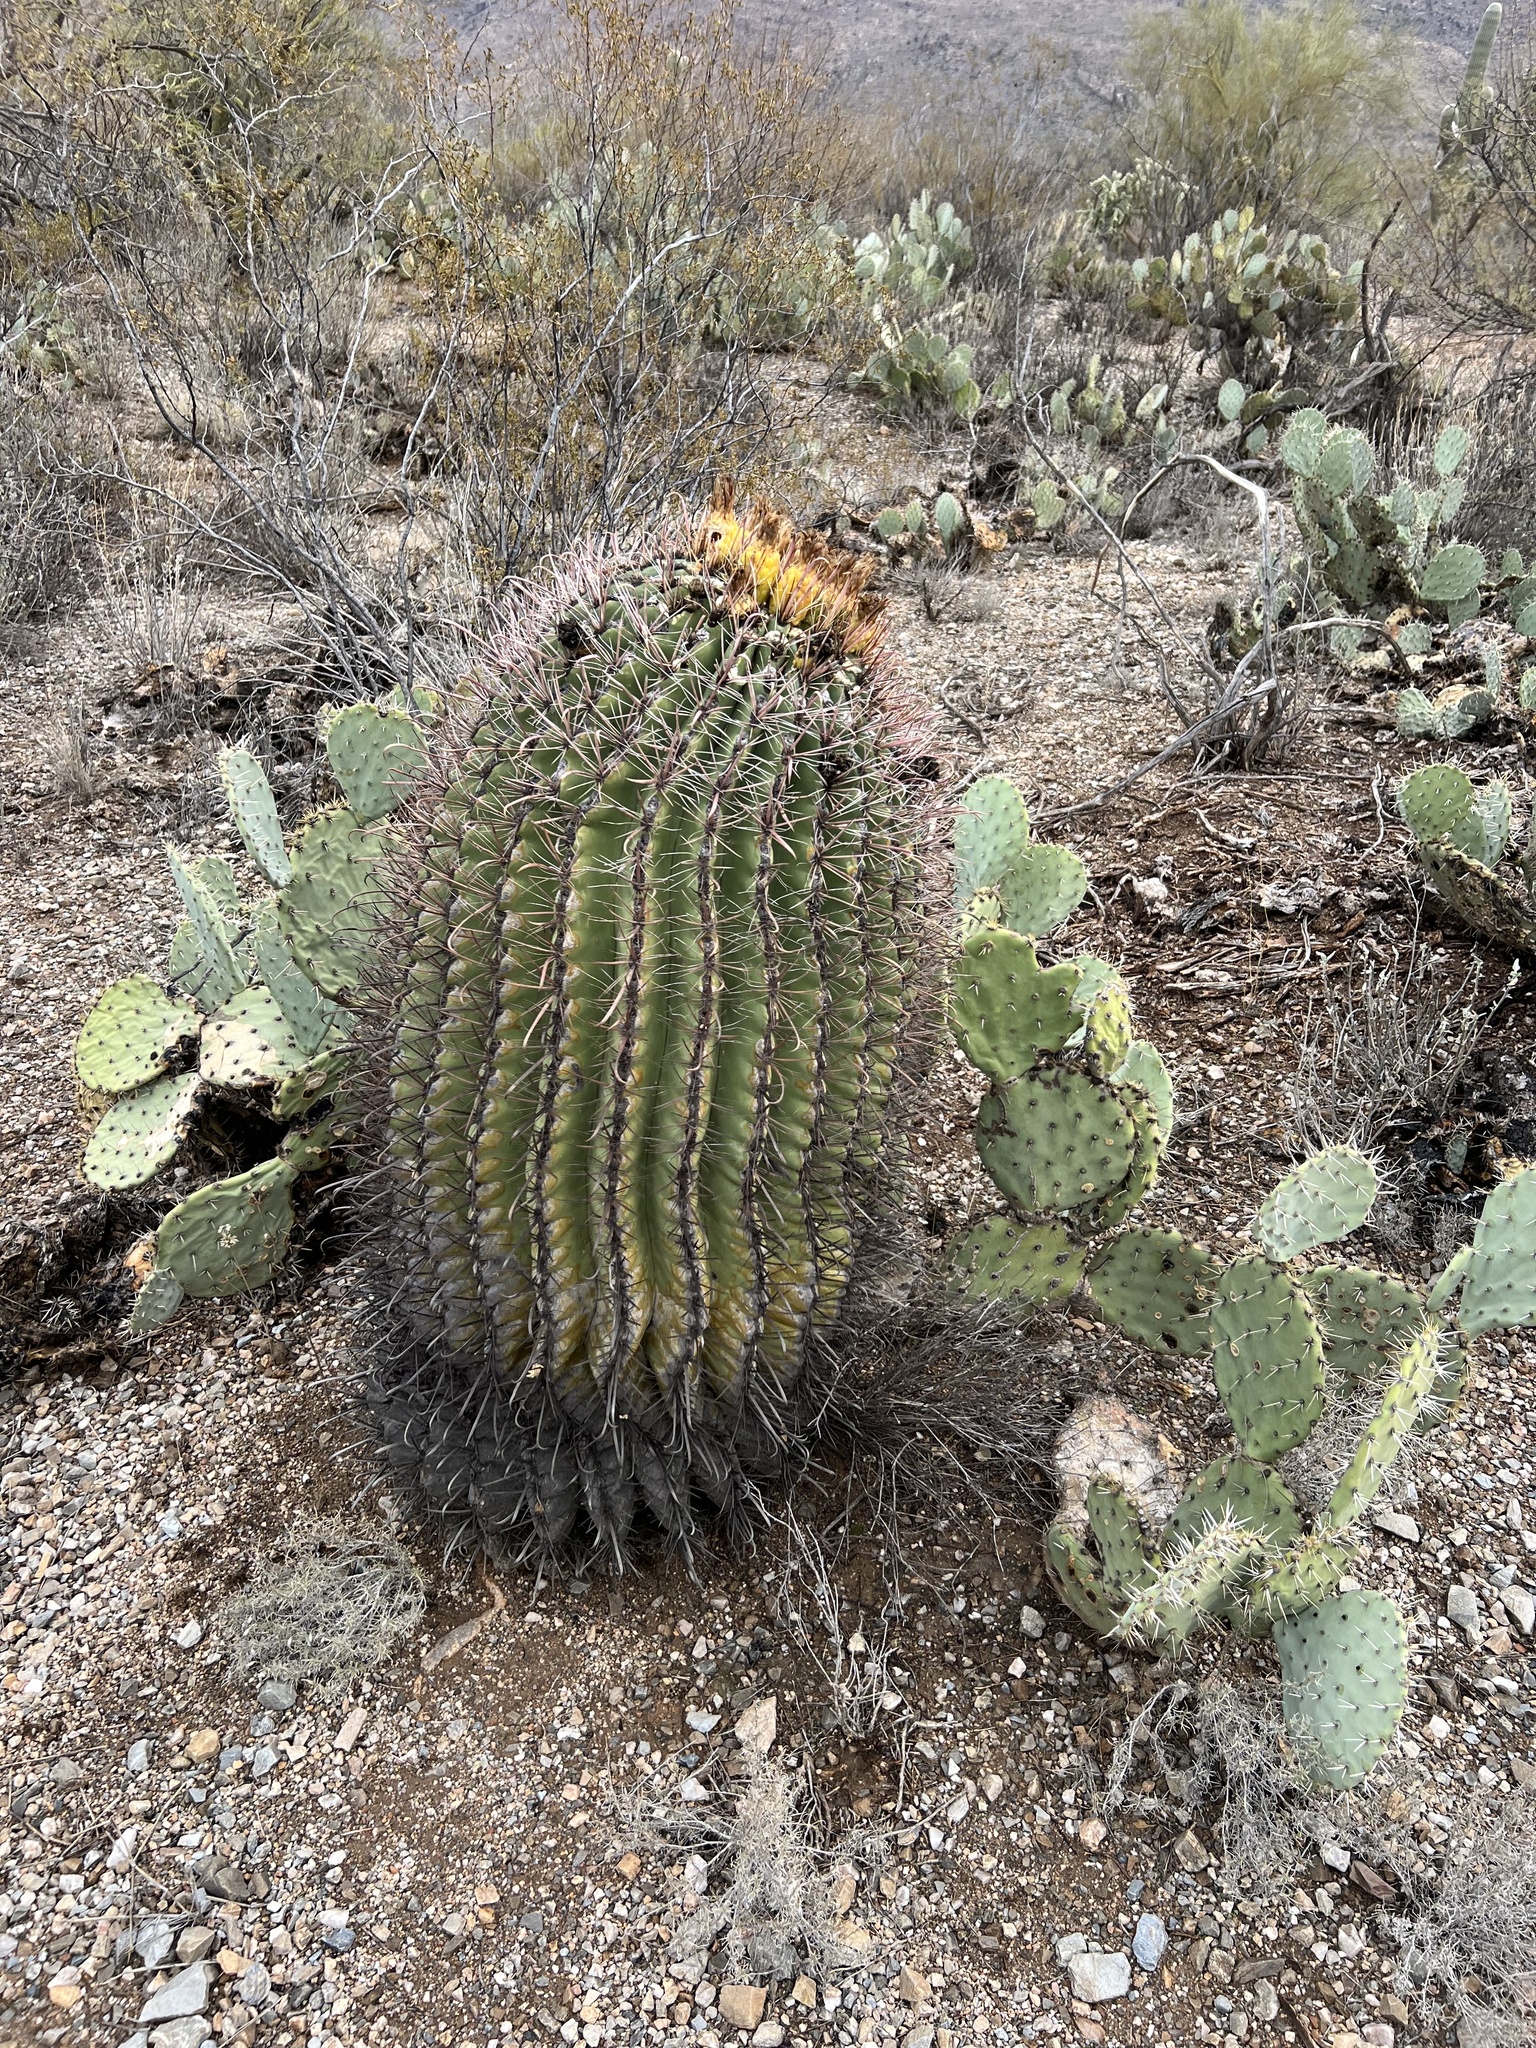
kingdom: Plantae
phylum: Tracheophyta
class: Magnoliopsida
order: Caryophyllales
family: Cactaceae
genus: Ferocactus
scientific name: Ferocactus wislizeni
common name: Candy barrel cactus
